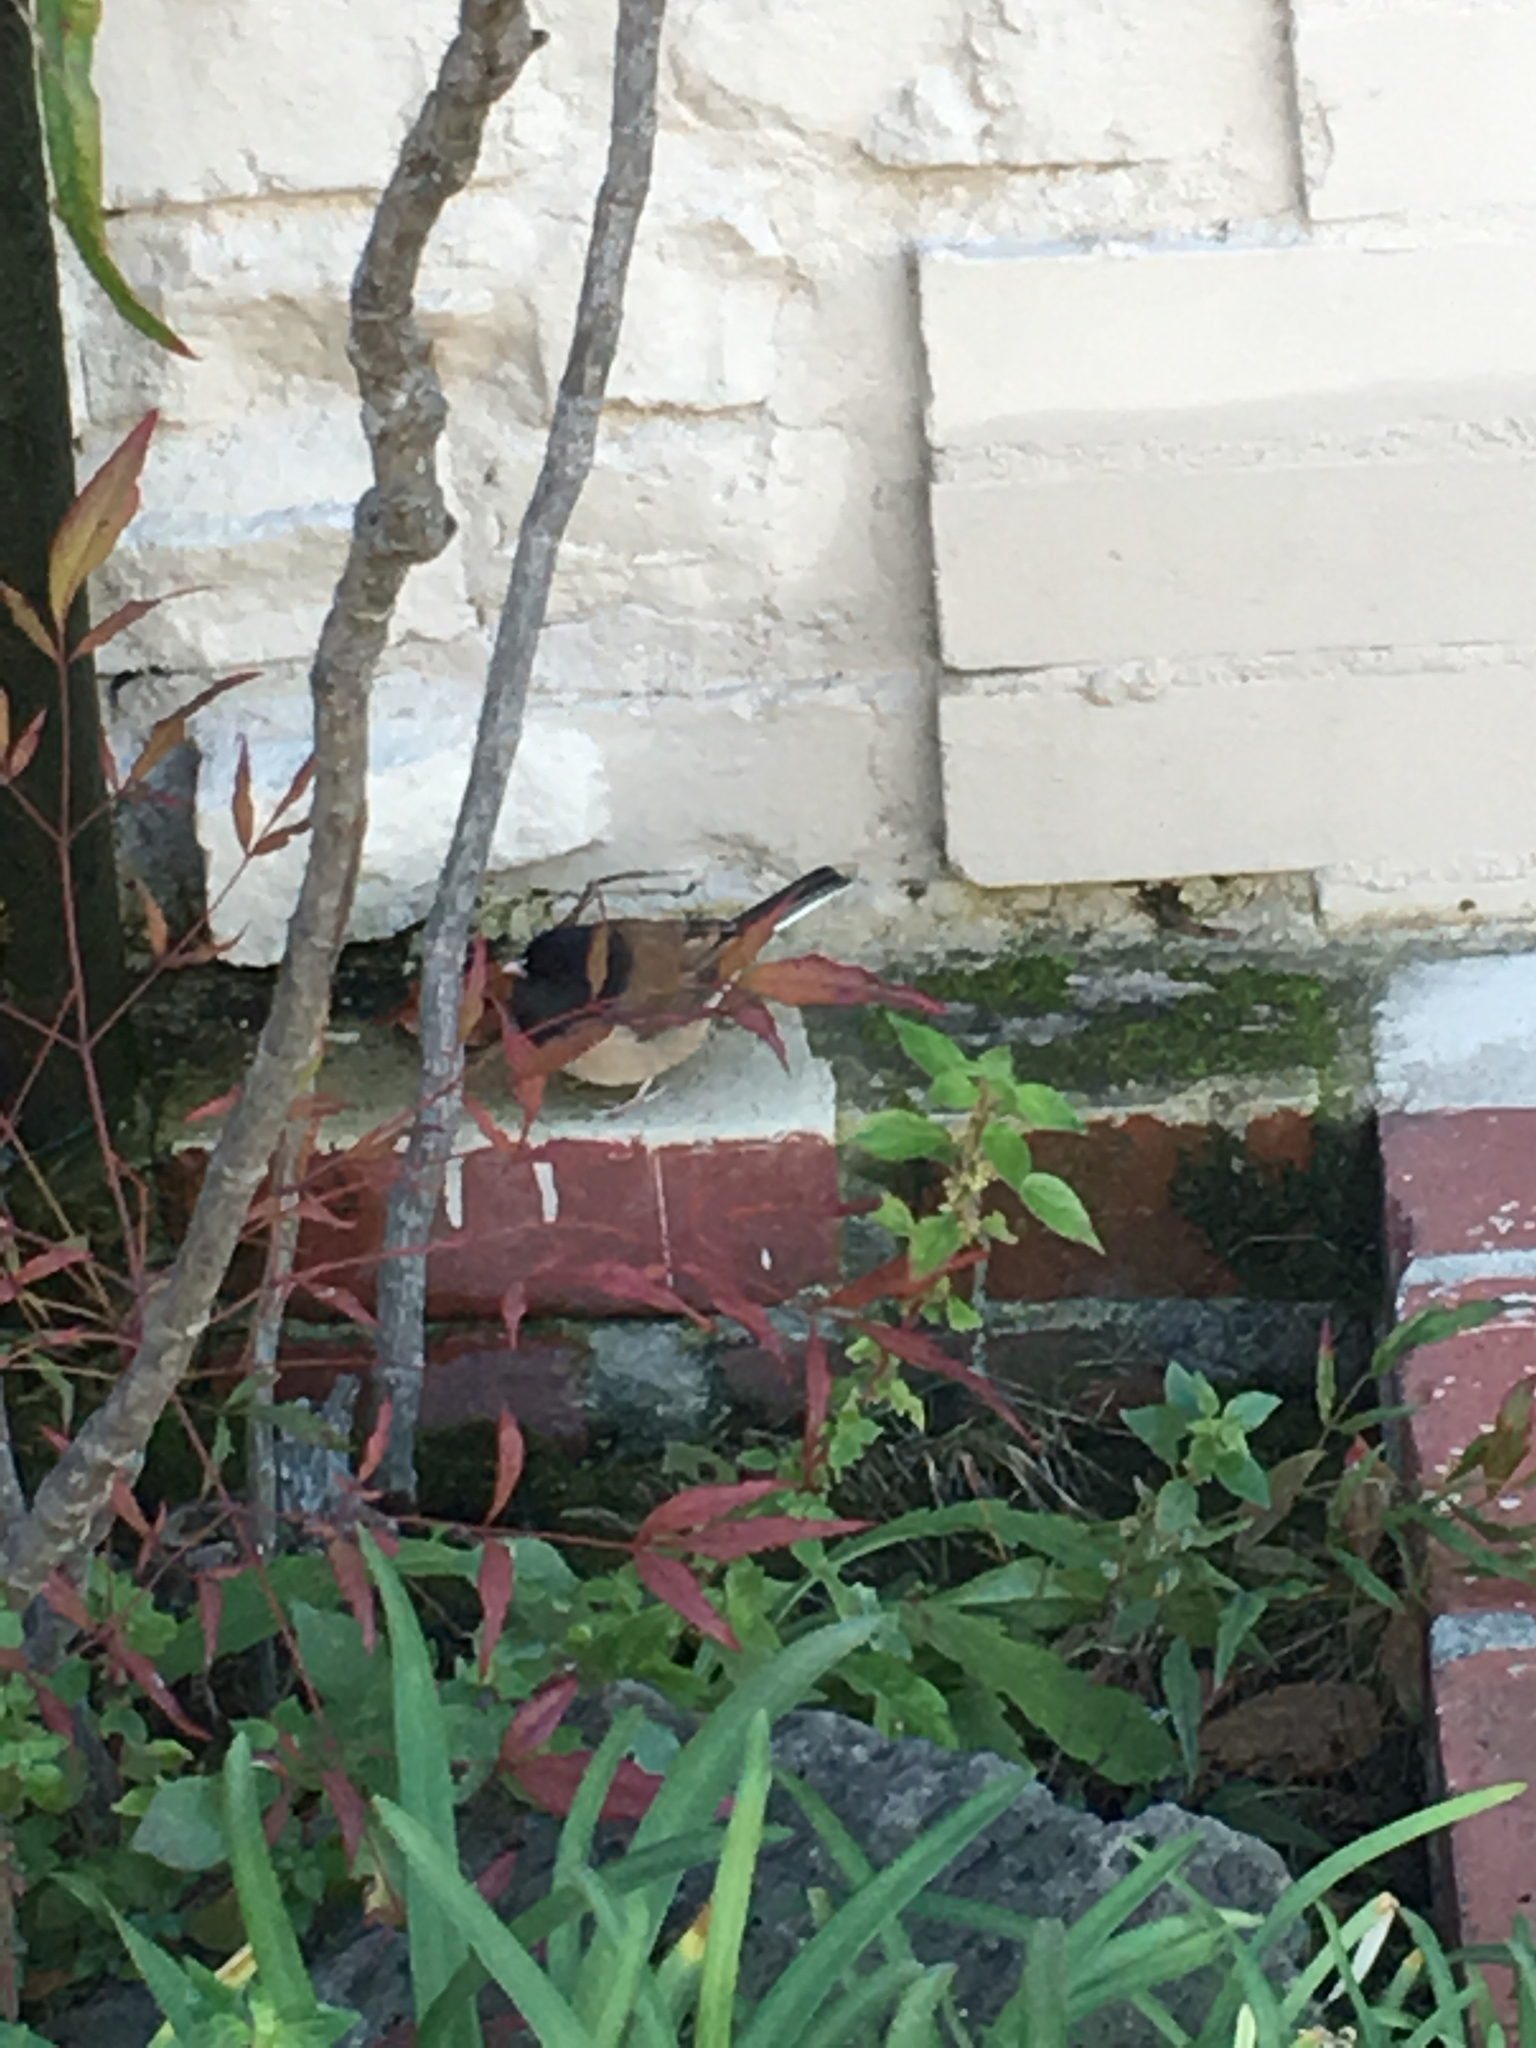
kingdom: Animalia
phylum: Chordata
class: Aves
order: Passeriformes
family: Passerellidae
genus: Junco
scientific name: Junco hyemalis
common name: Dark-eyed junco
